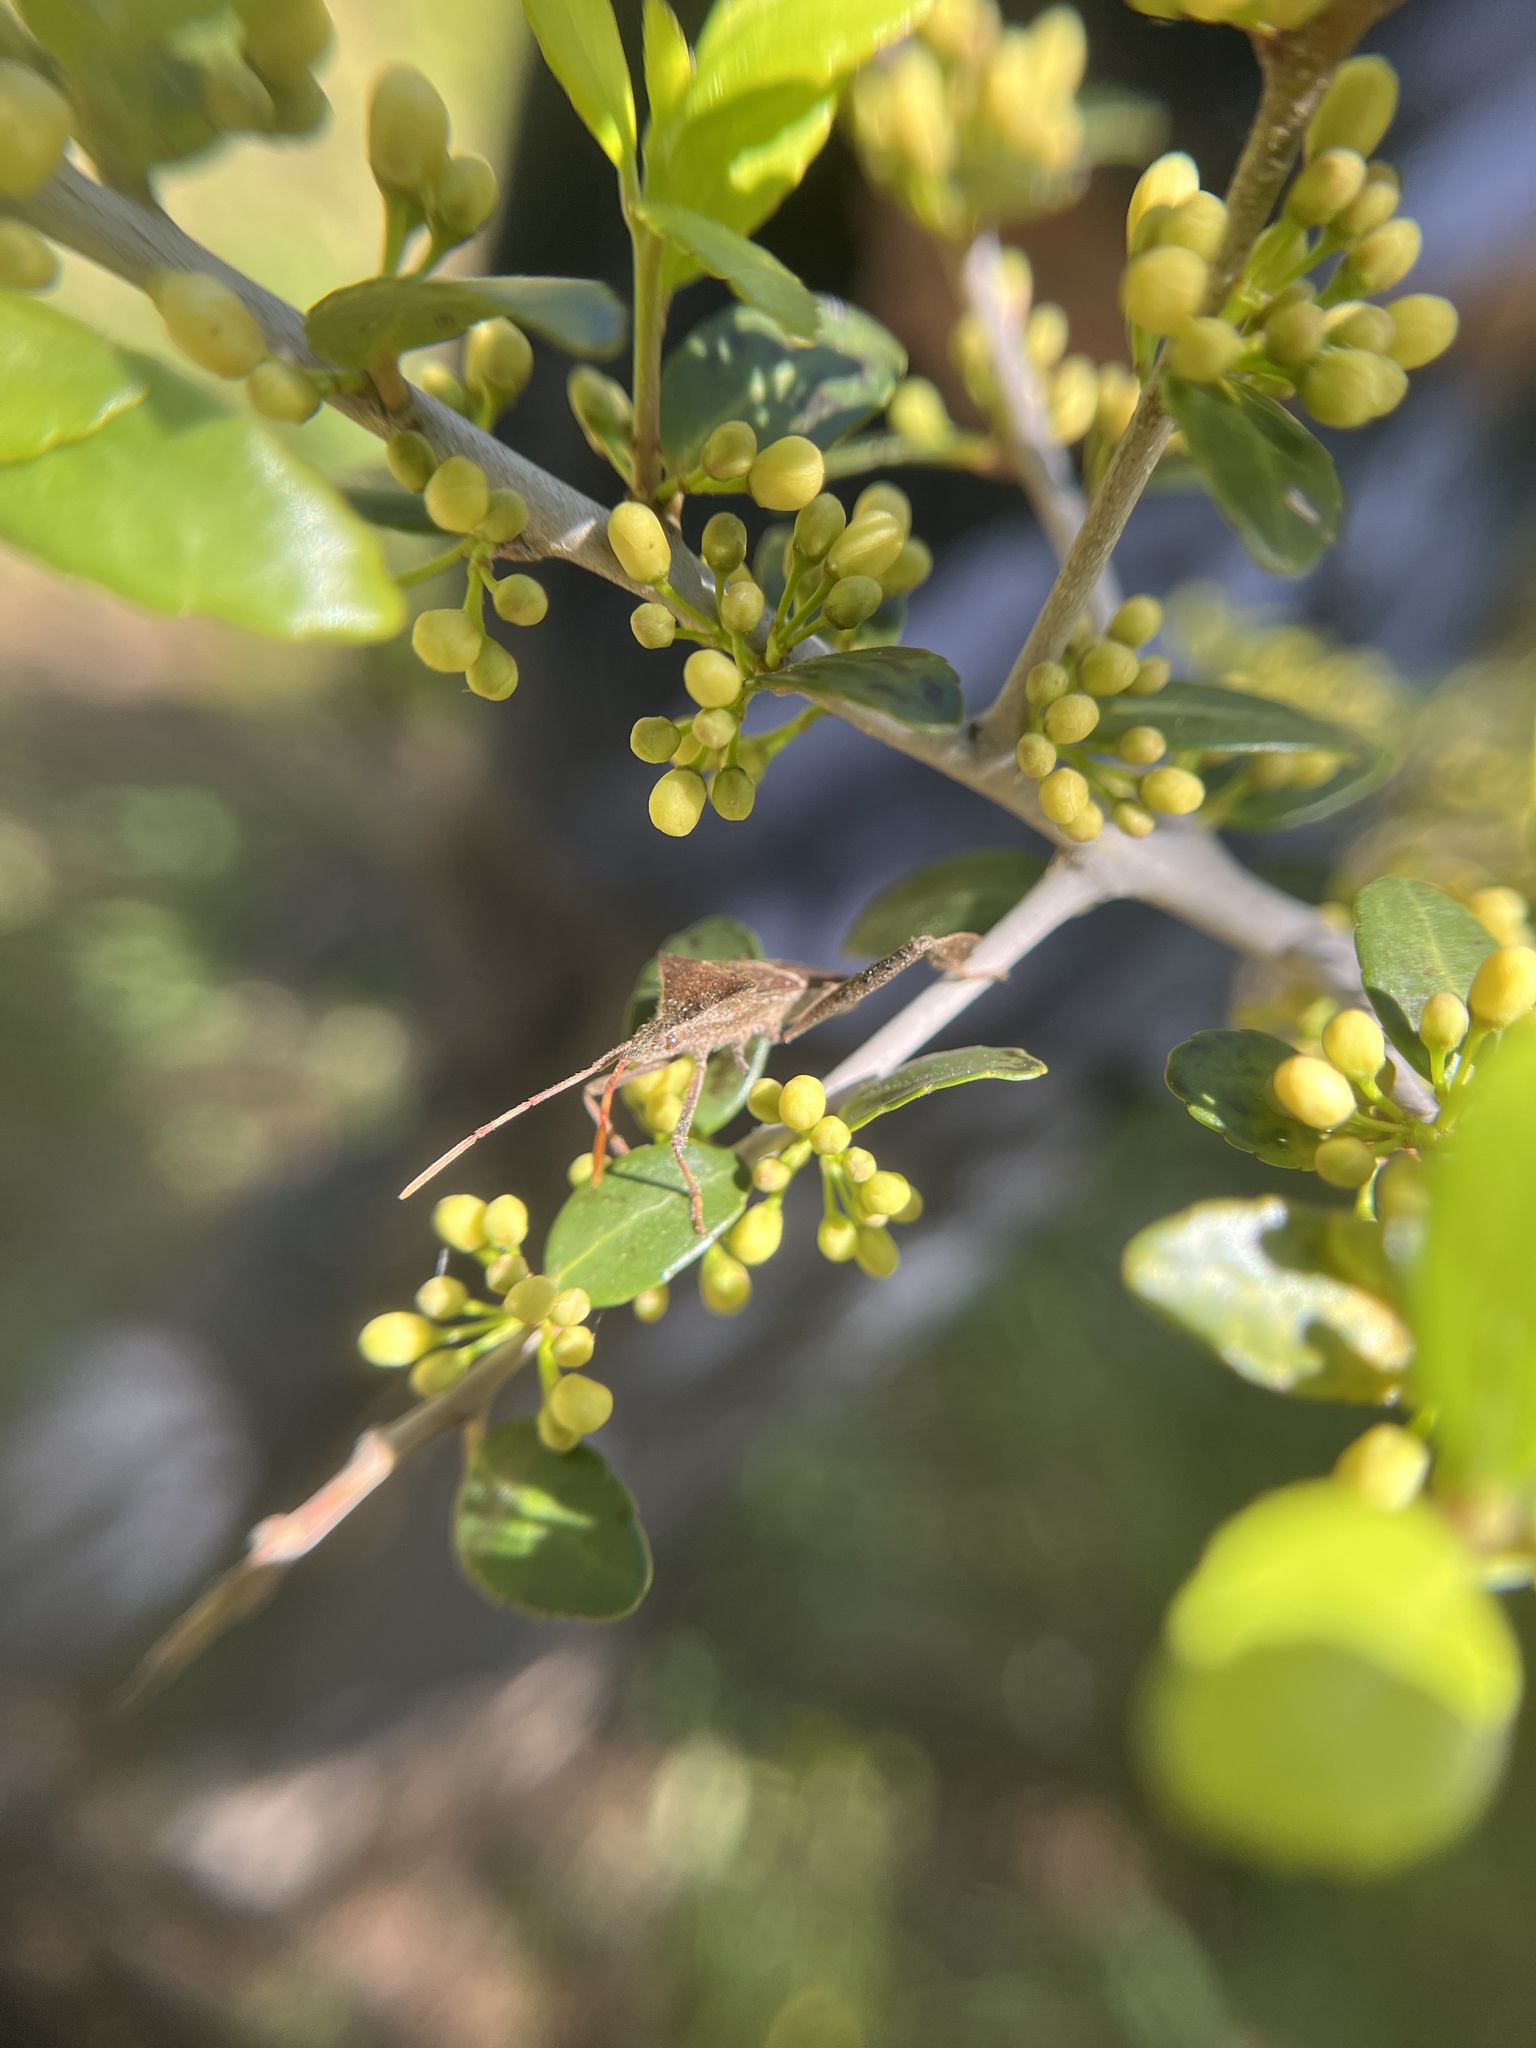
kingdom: Animalia
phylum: Arthropoda
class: Insecta
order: Hemiptera
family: Coreidae
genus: Leptoglossus
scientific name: Leptoglossus phyllopus
